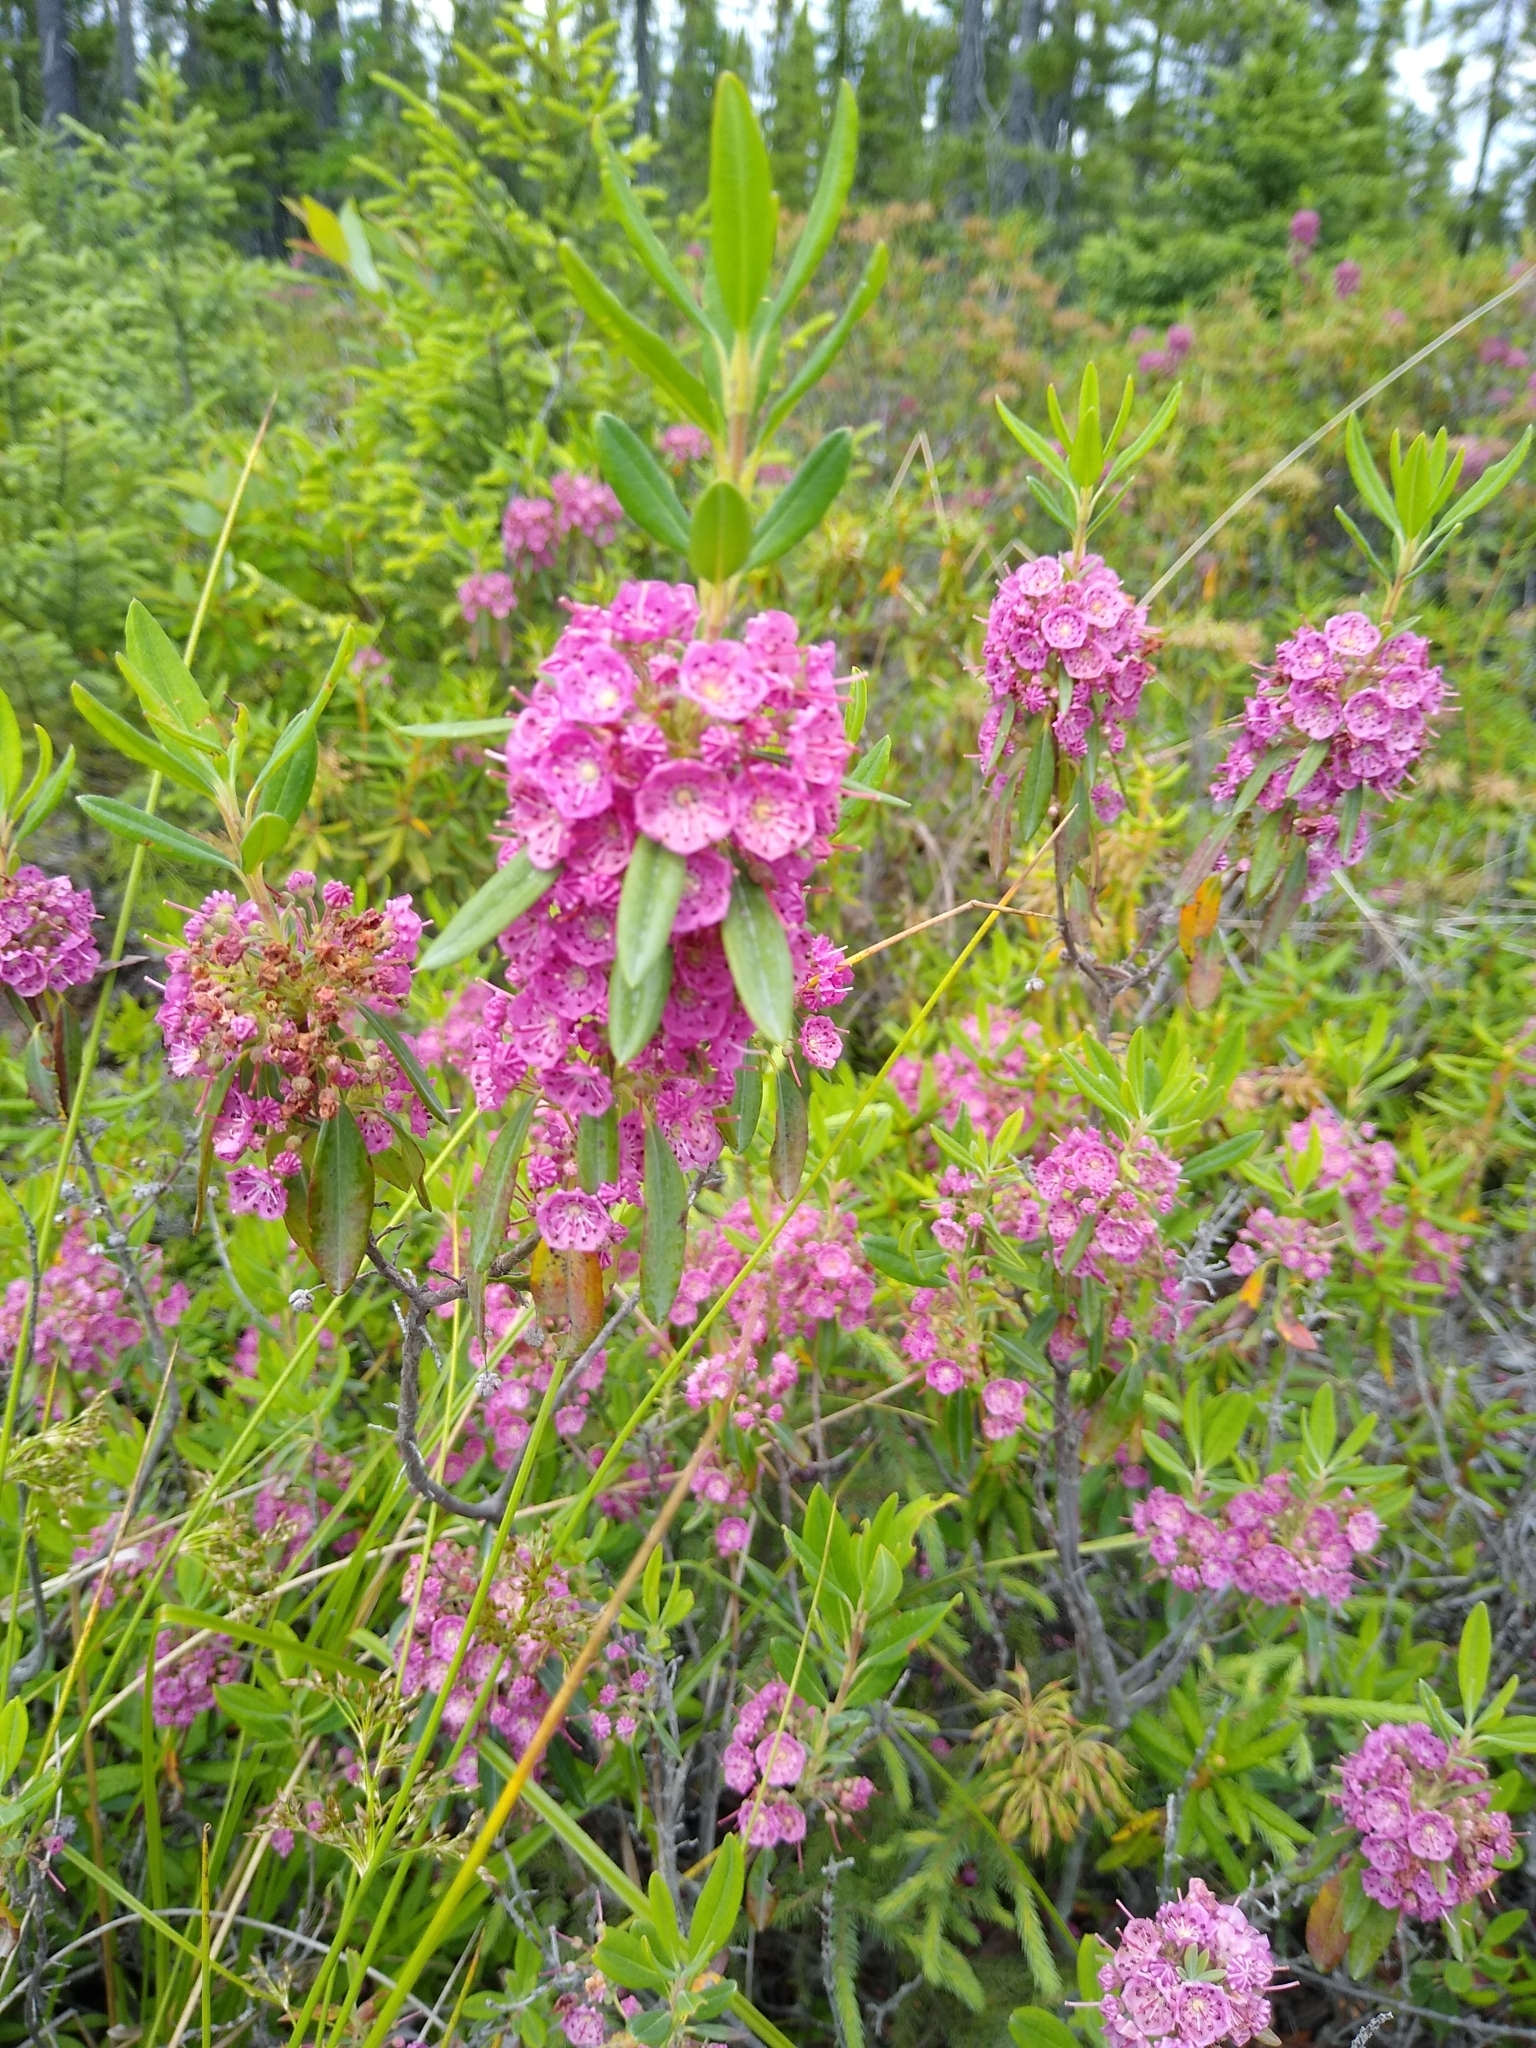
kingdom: Plantae
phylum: Tracheophyta
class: Magnoliopsida
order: Ericales
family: Ericaceae
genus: Kalmia
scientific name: Kalmia angustifolia
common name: Sheep-laurel
